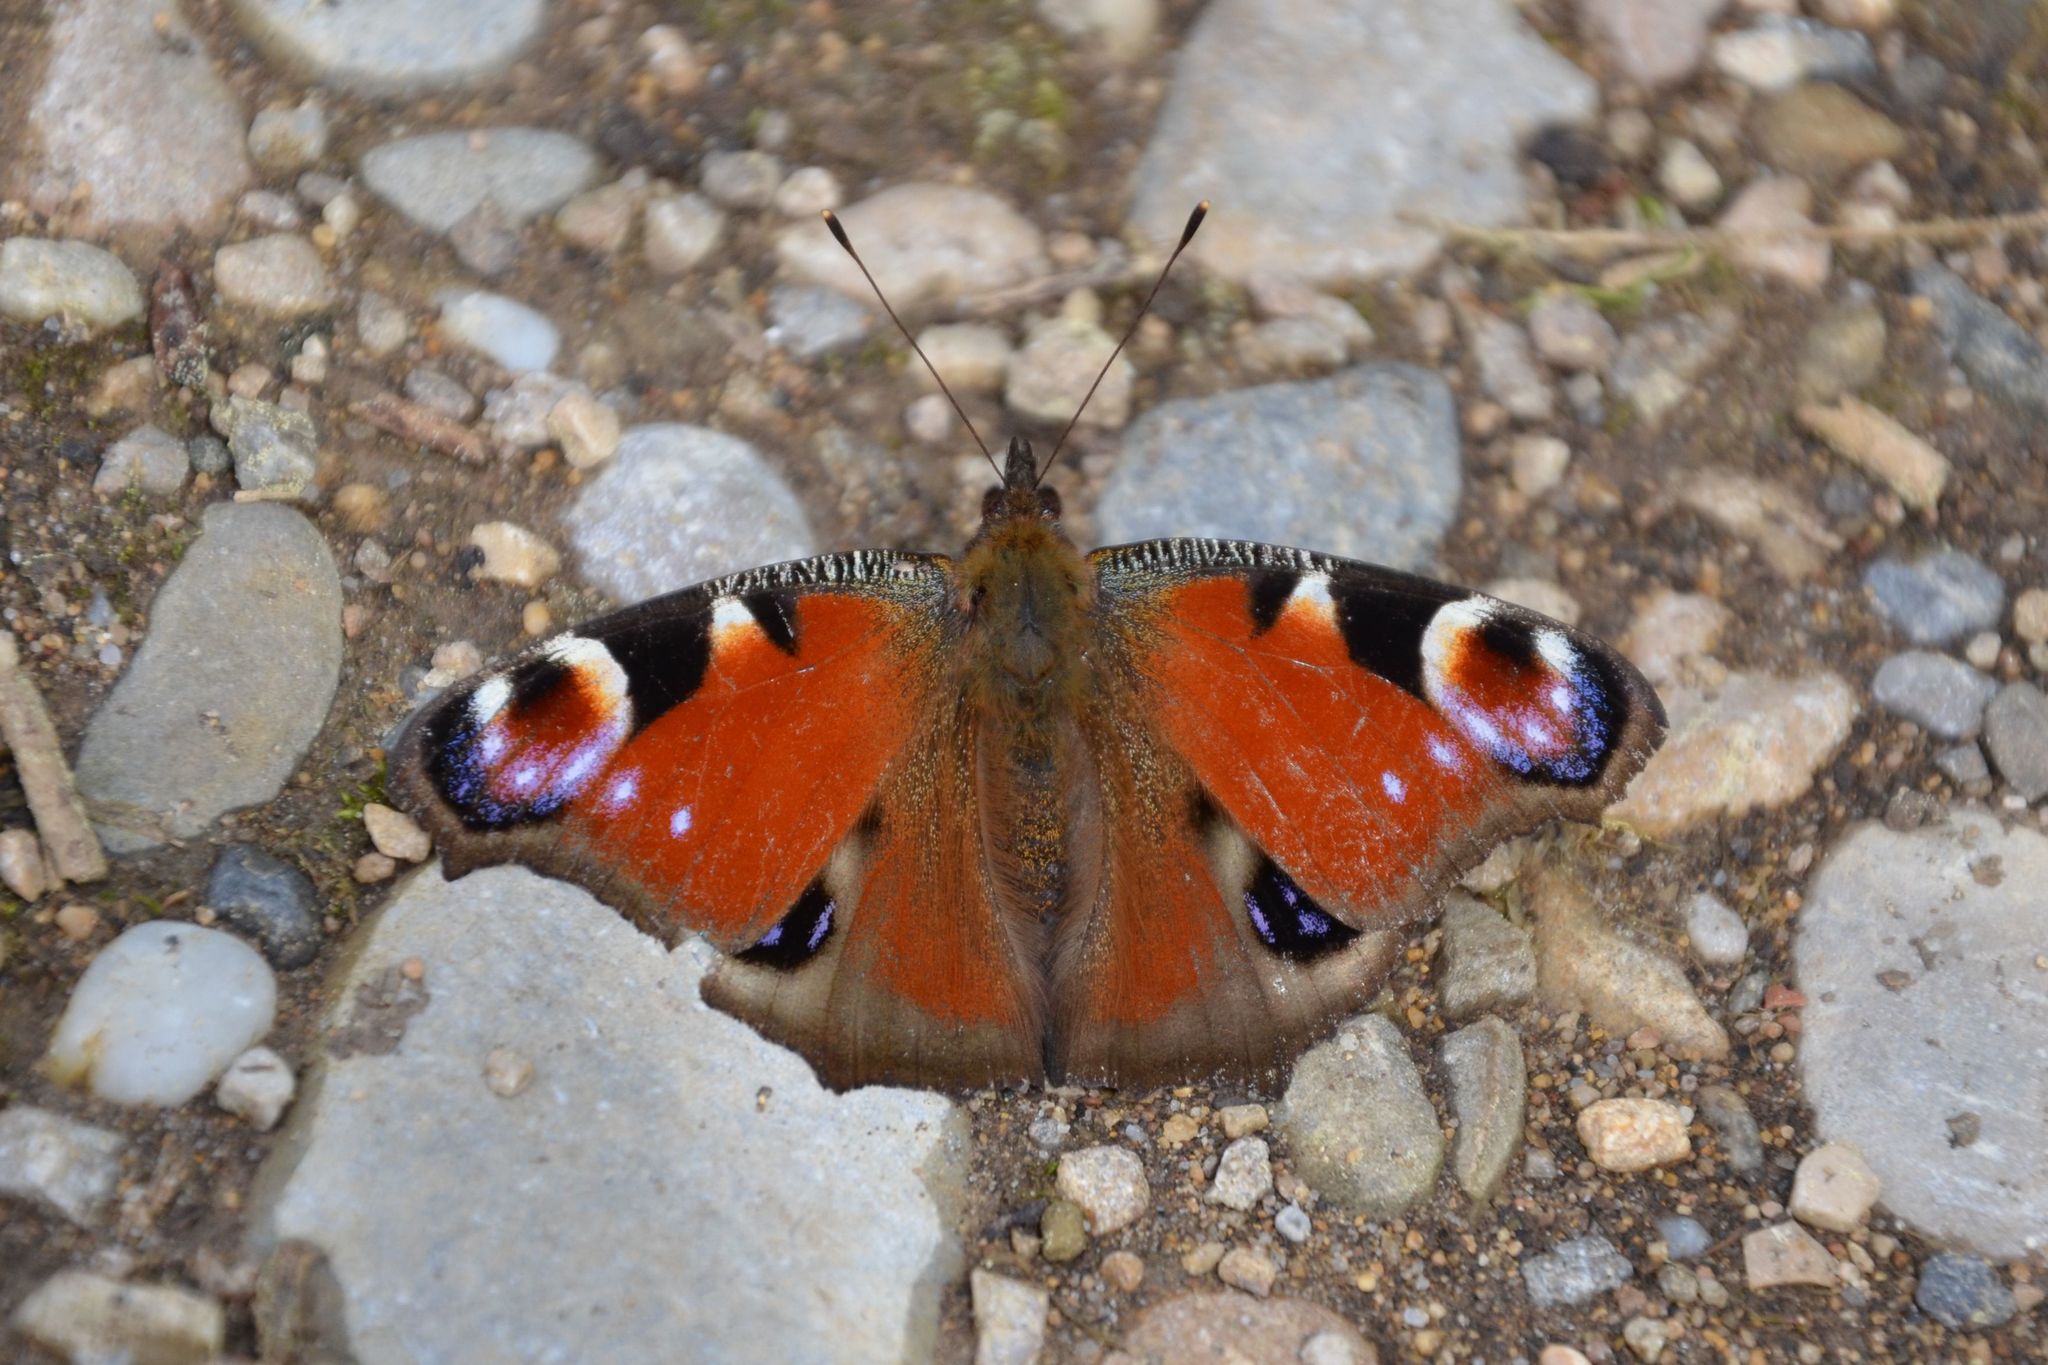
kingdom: Animalia
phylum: Arthropoda
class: Insecta
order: Lepidoptera
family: Nymphalidae
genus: Aglais
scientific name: Aglais io
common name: Peacock
